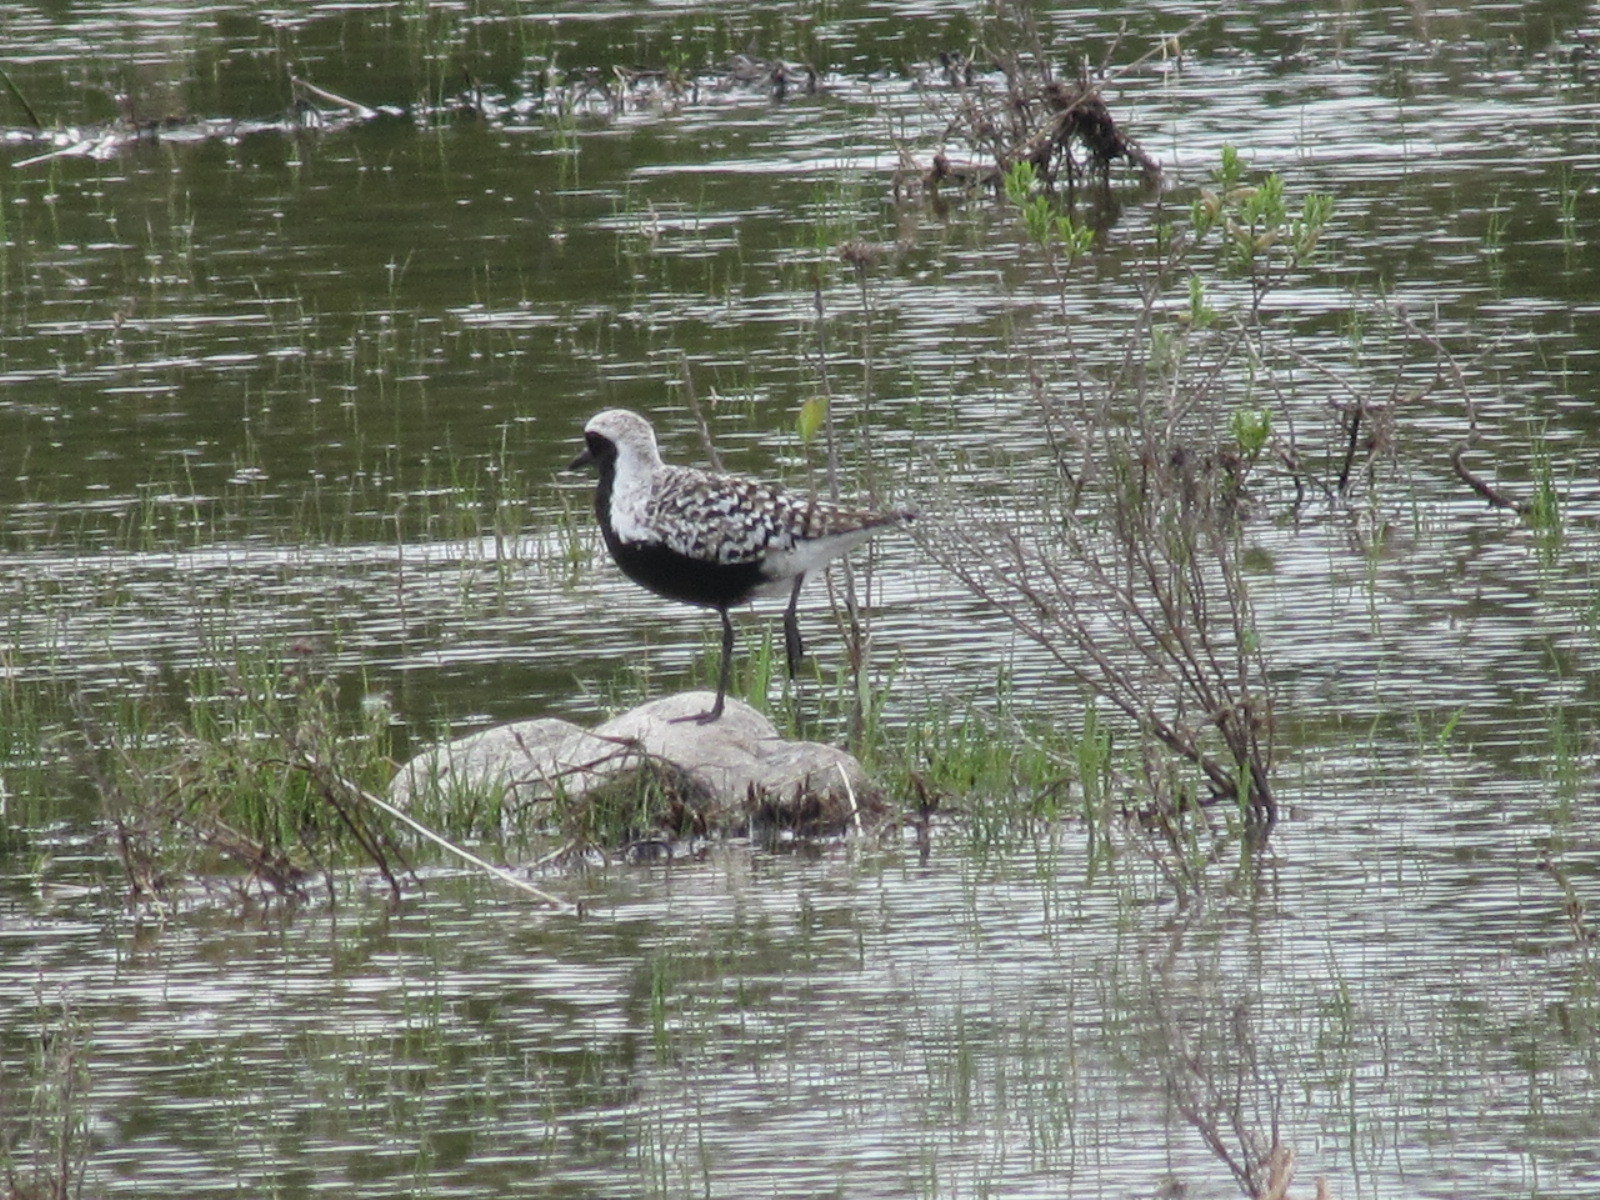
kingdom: Animalia
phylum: Chordata
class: Aves
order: Charadriiformes
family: Charadriidae
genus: Pluvialis
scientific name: Pluvialis squatarola
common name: Grey plover
